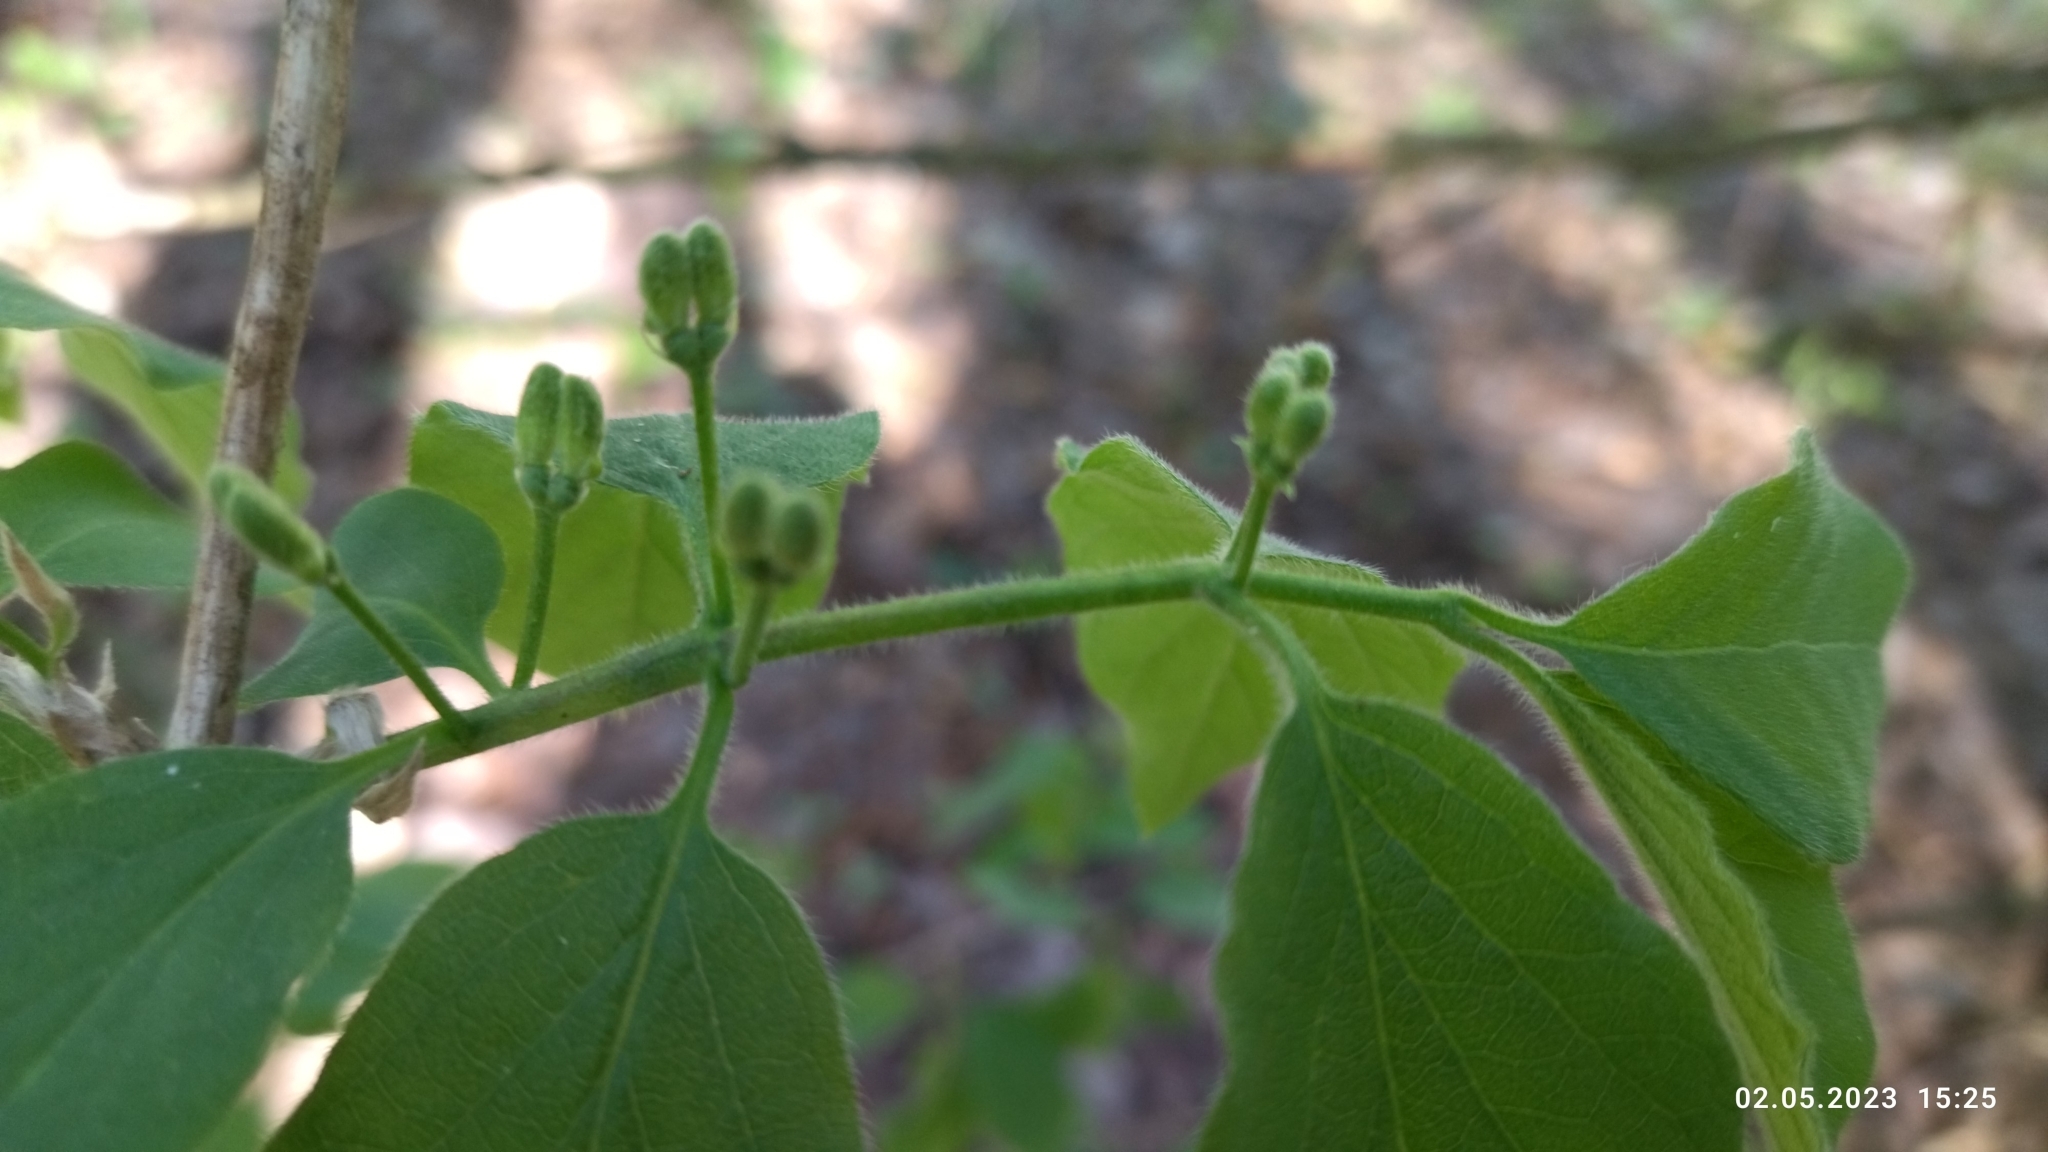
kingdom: Plantae
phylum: Tracheophyta
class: Magnoliopsida
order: Dipsacales
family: Caprifoliaceae
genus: Lonicera
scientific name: Lonicera xylosteum
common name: Fly honeysuckle
